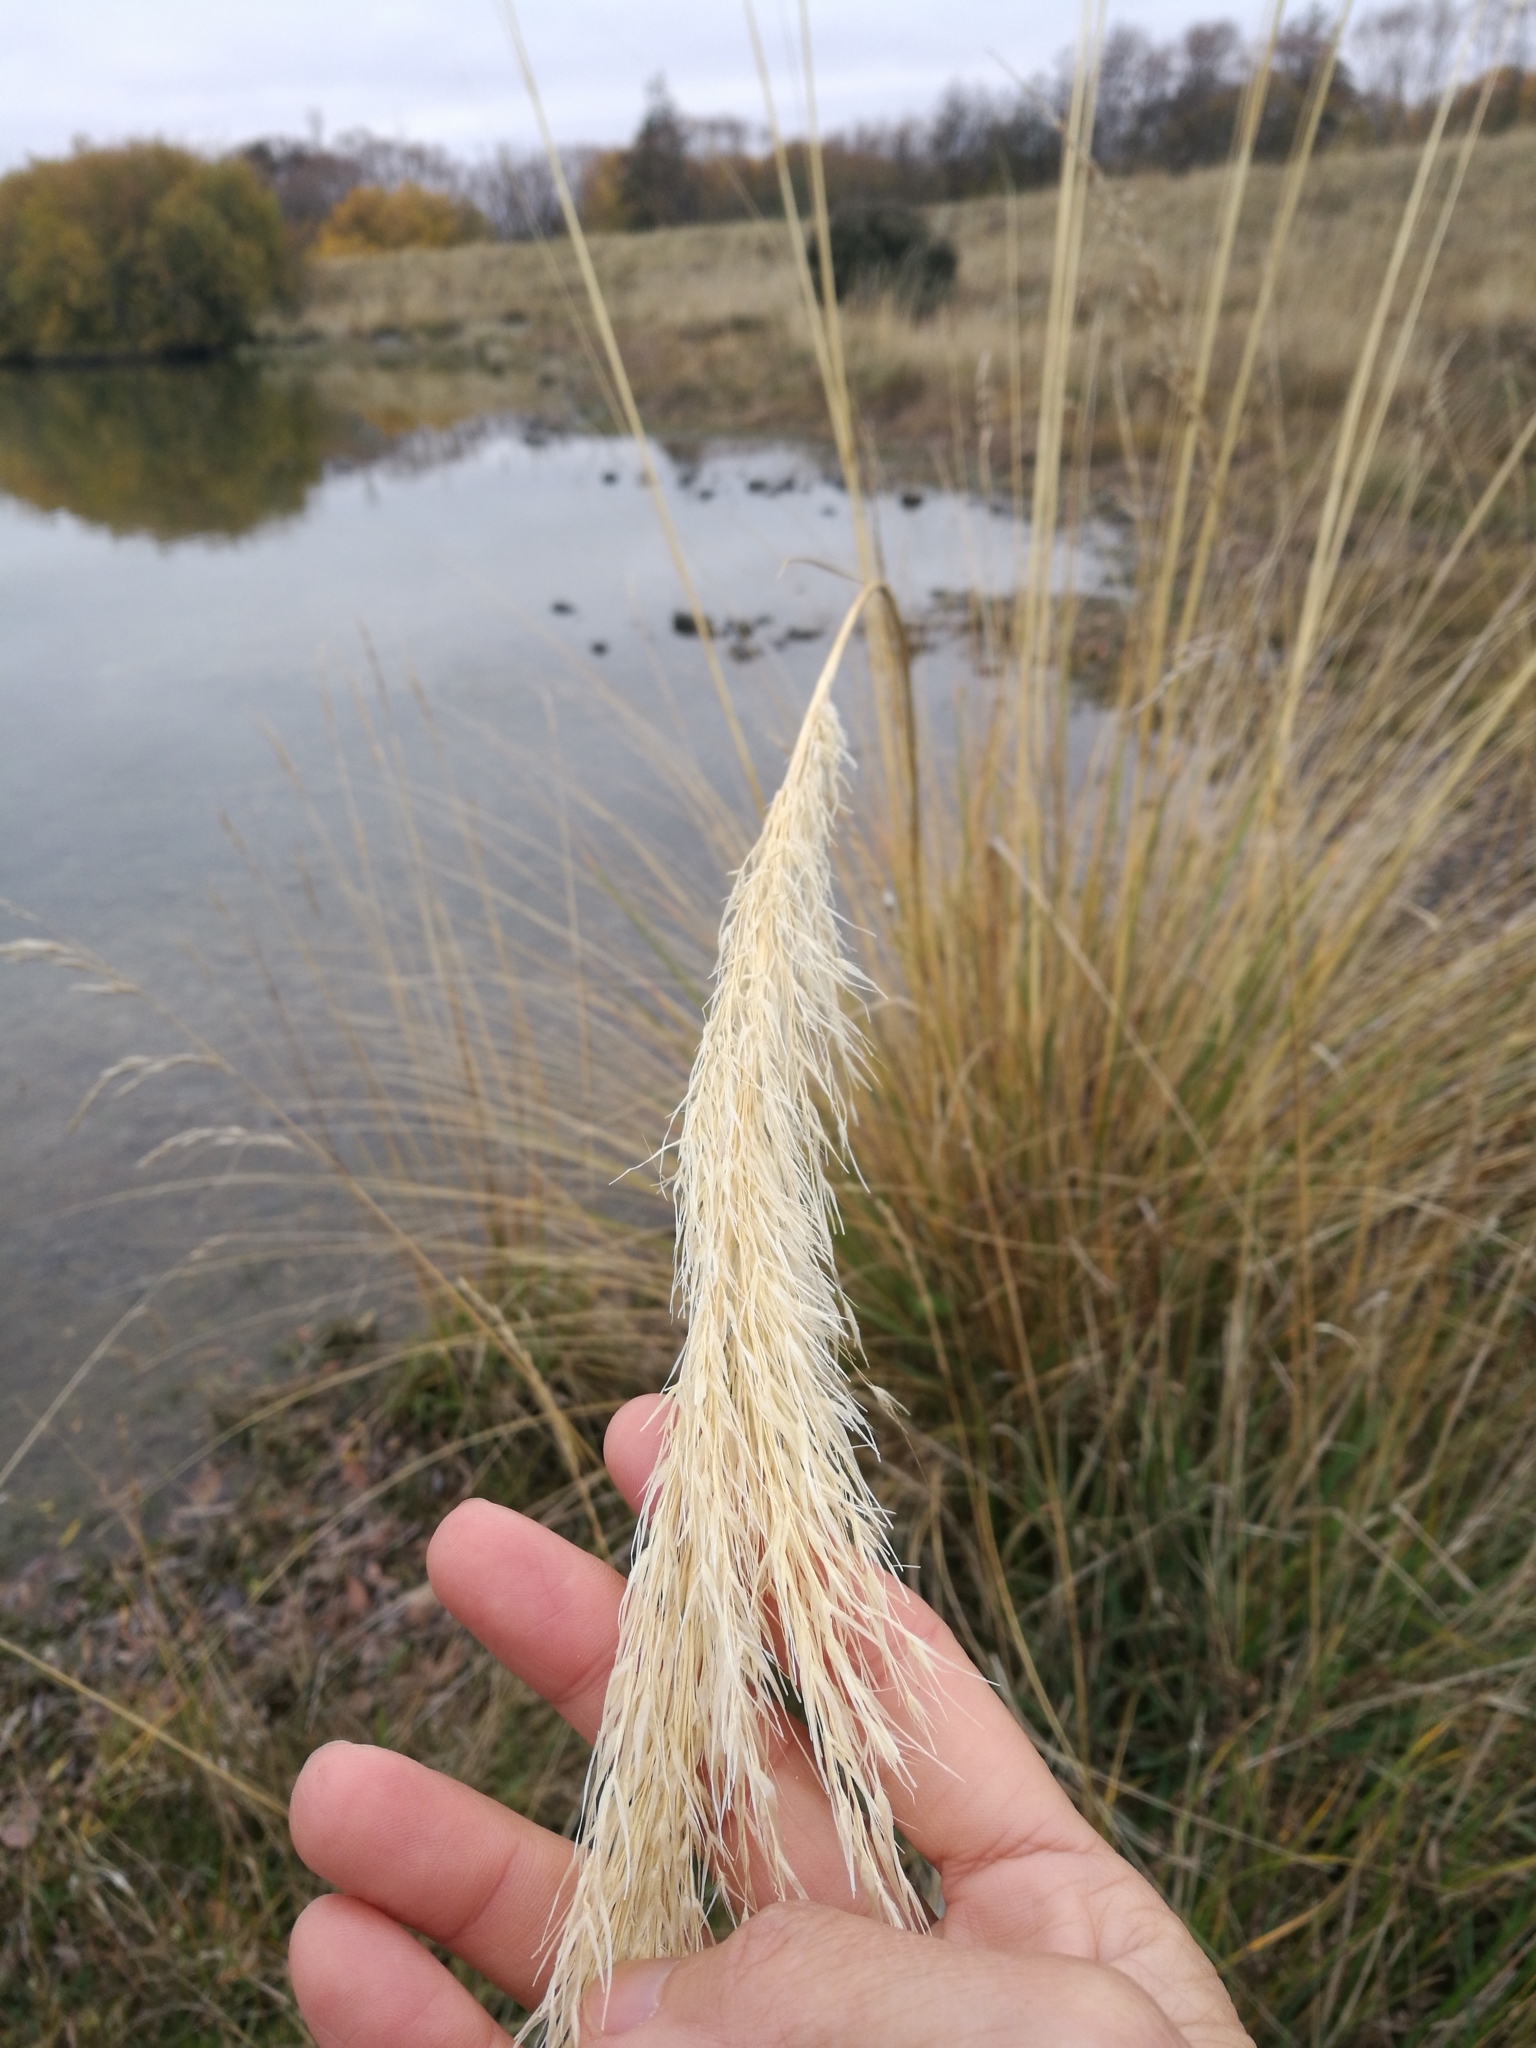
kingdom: Plantae
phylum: Tracheophyta
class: Liliopsida
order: Poales
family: Poaceae
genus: Austroderia
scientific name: Austroderia richardii
